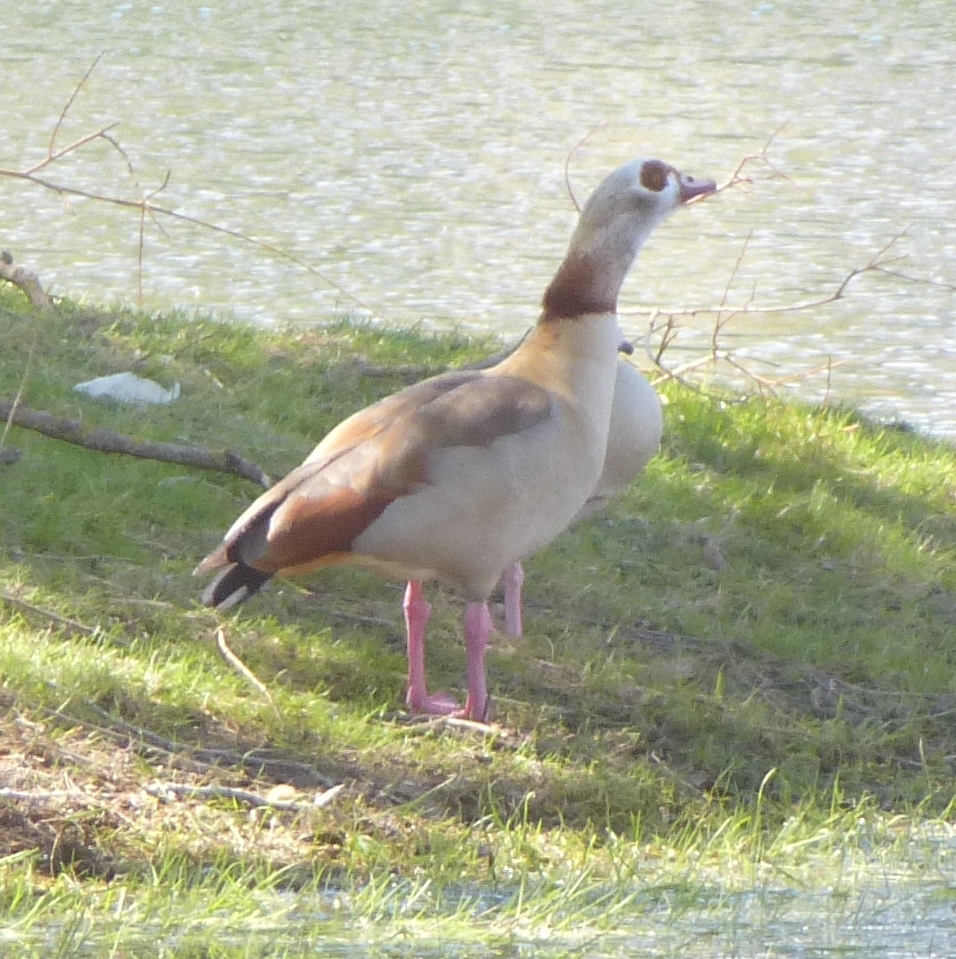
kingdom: Animalia
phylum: Chordata
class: Aves
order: Anseriformes
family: Anatidae
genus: Alopochen
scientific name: Alopochen aegyptiaca
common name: Egyptian goose
